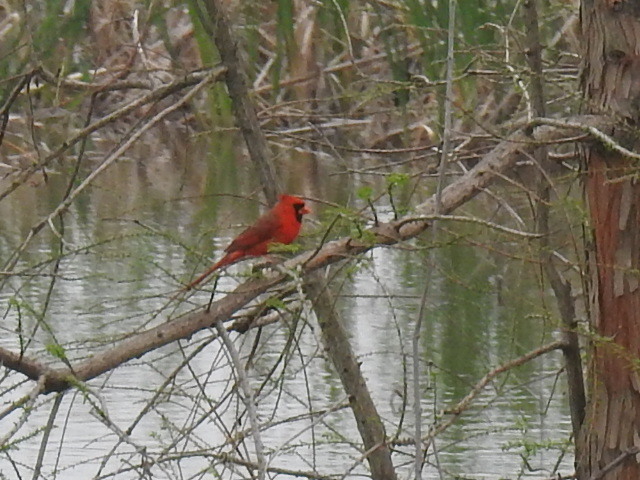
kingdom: Animalia
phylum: Chordata
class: Aves
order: Passeriformes
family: Cardinalidae
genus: Cardinalis
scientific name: Cardinalis cardinalis
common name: Northern cardinal
